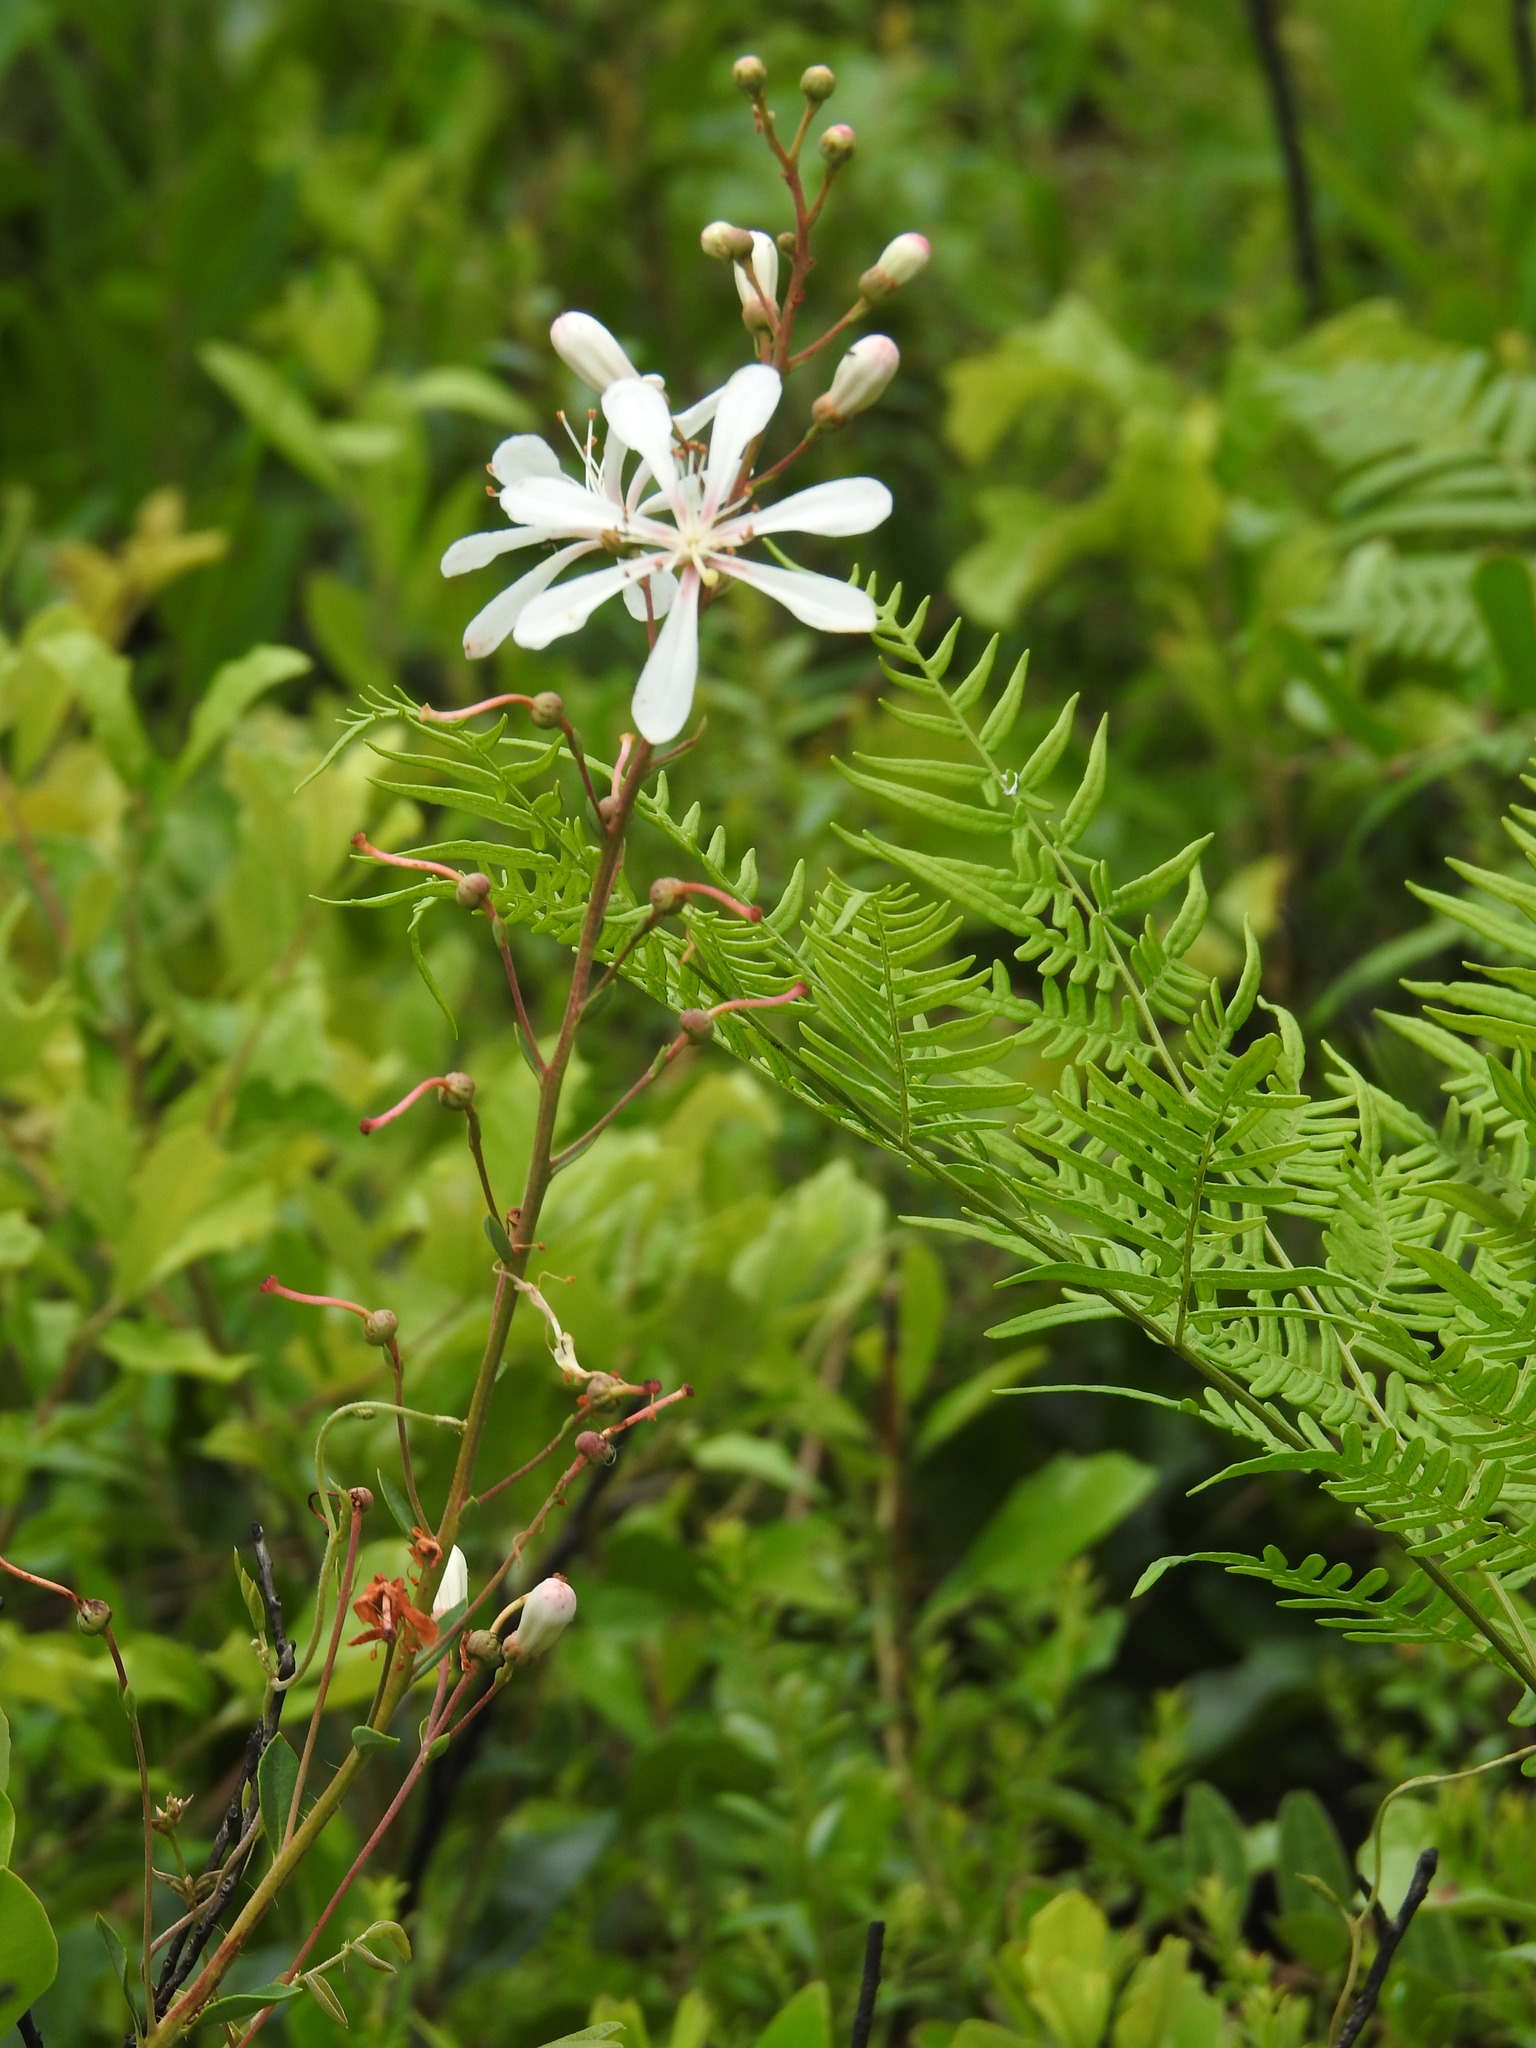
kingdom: Plantae
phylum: Tracheophyta
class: Magnoliopsida
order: Ericales
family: Ericaceae
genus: Bejaria
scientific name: Bejaria racemosa
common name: Tarflower
